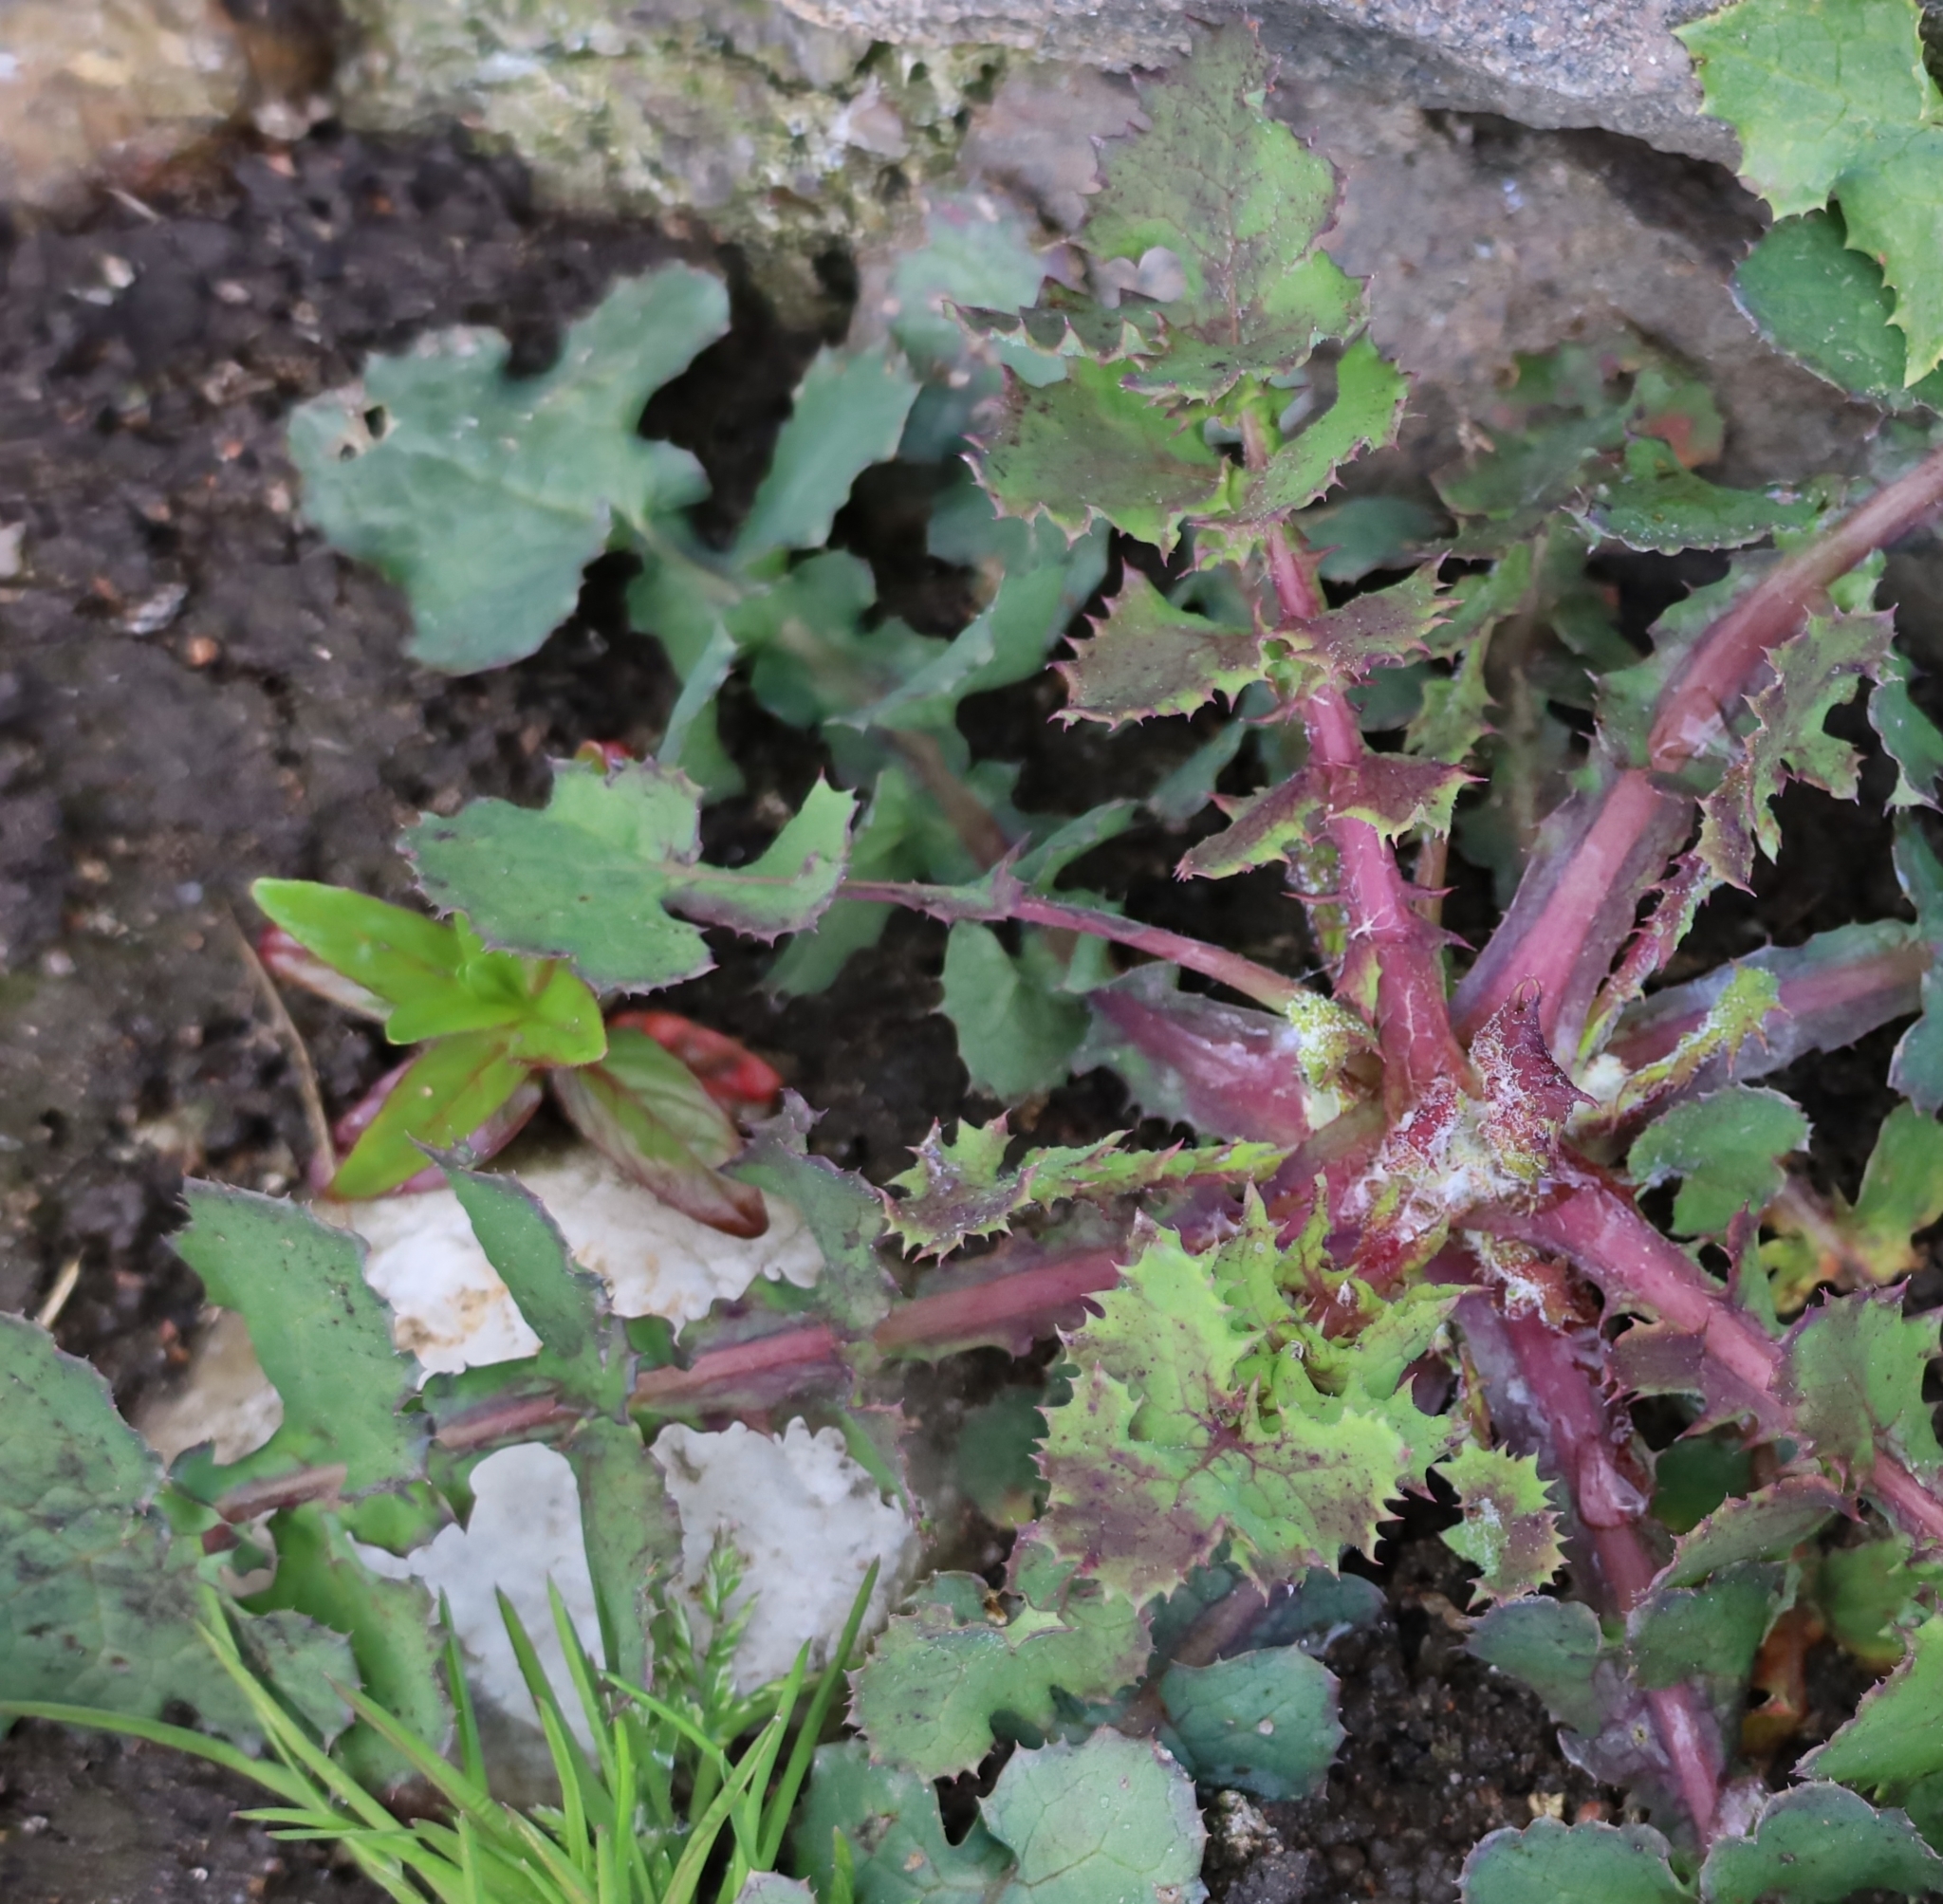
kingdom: Plantae
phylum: Tracheophyta
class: Magnoliopsida
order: Asterales
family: Asteraceae
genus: Sonchus
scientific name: Sonchus oleraceus
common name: Common sowthistle
